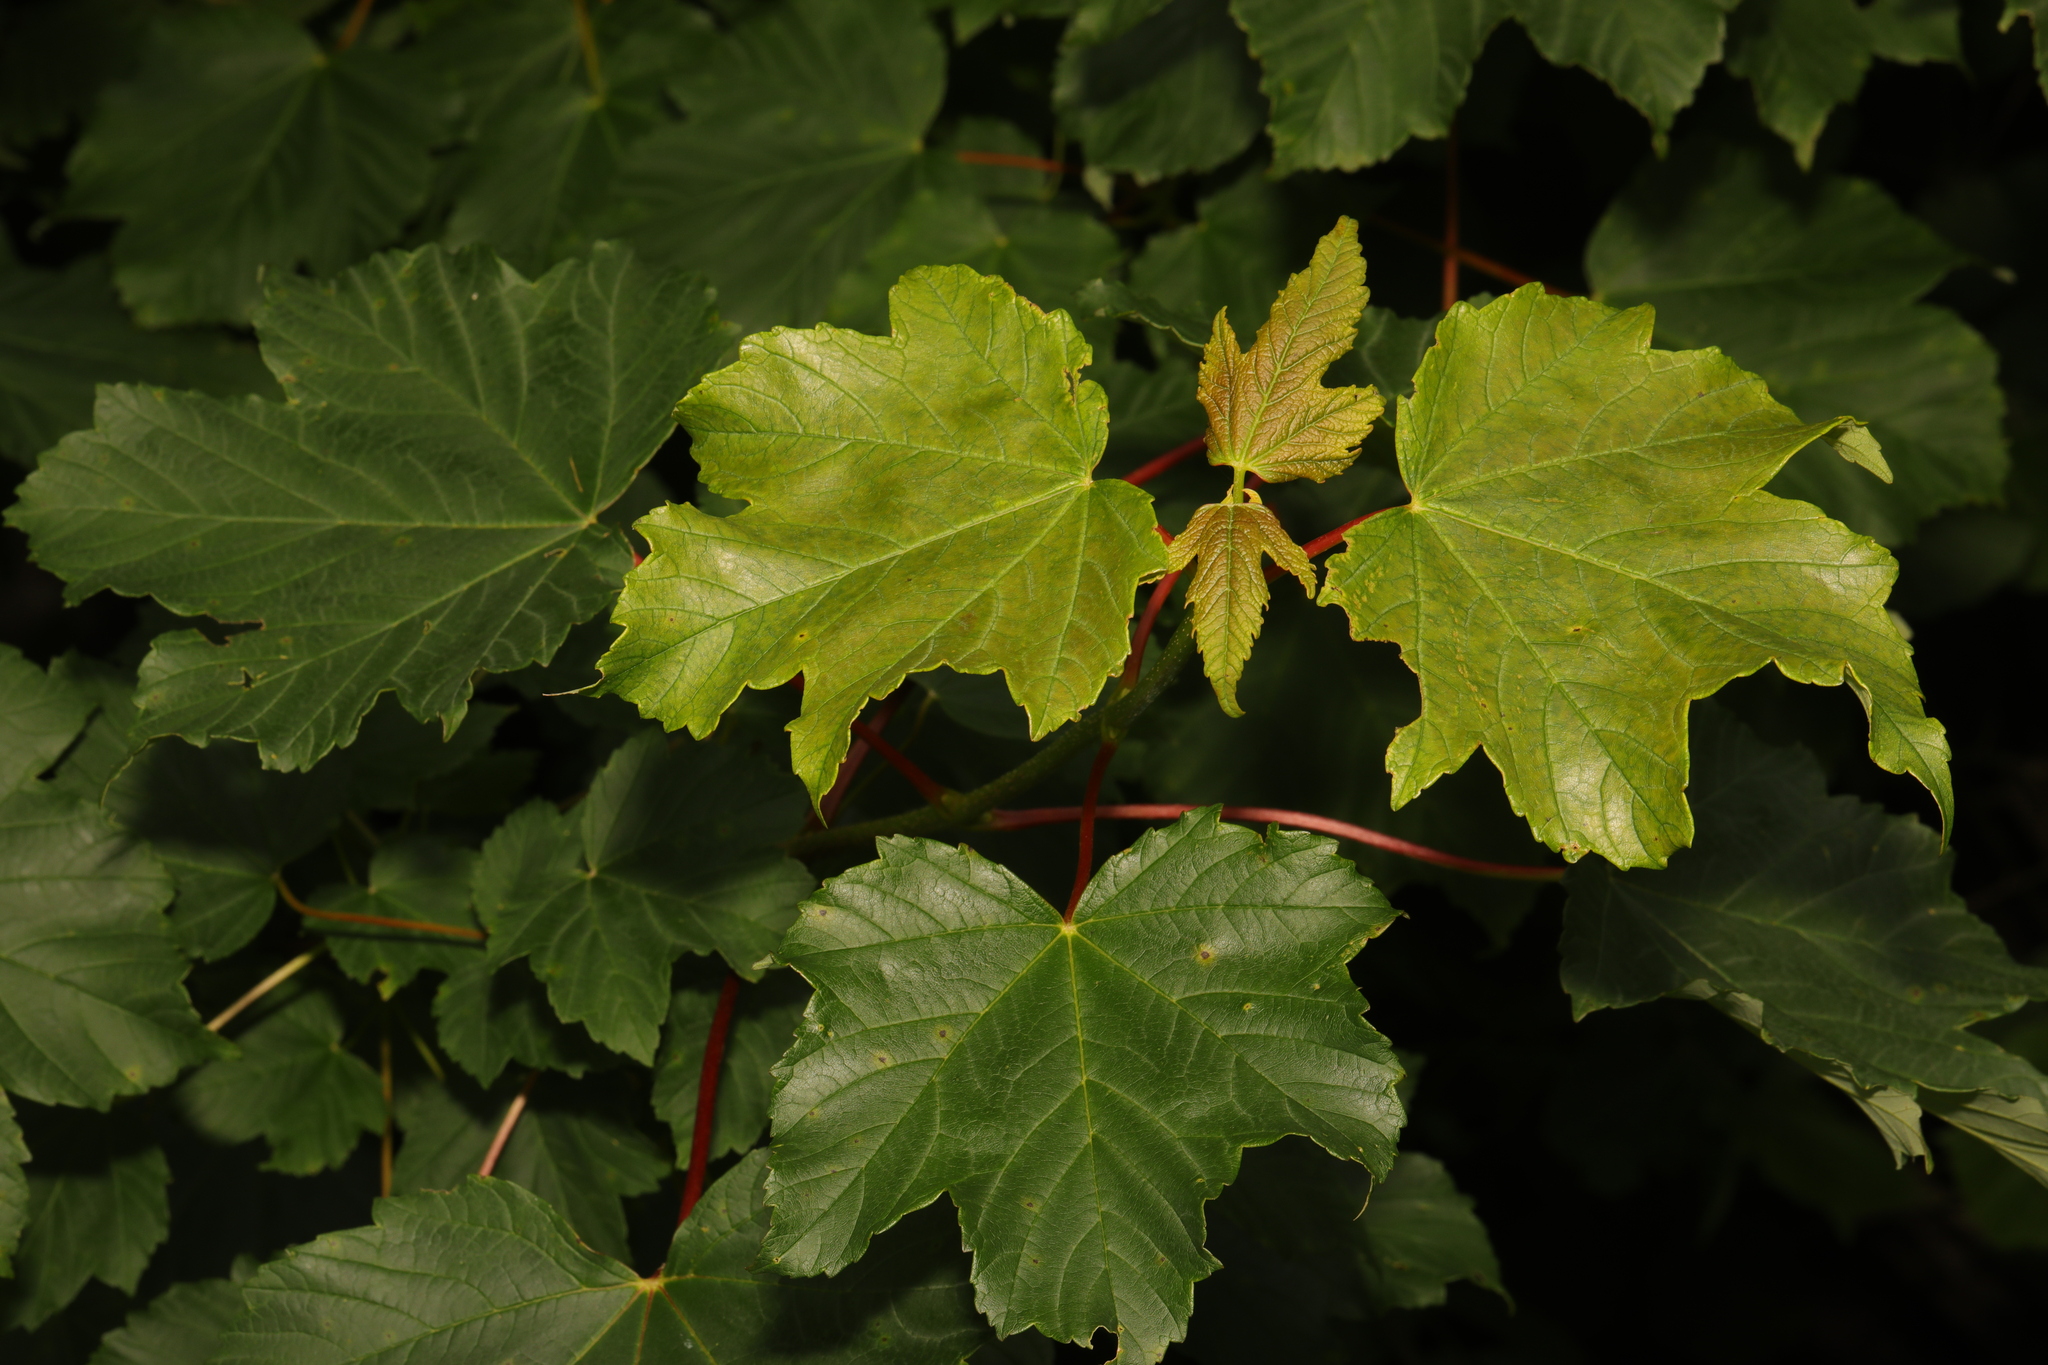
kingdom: Plantae
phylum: Tracheophyta
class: Magnoliopsida
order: Sapindales
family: Sapindaceae
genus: Acer
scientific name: Acer pseudoplatanus
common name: Sycamore
